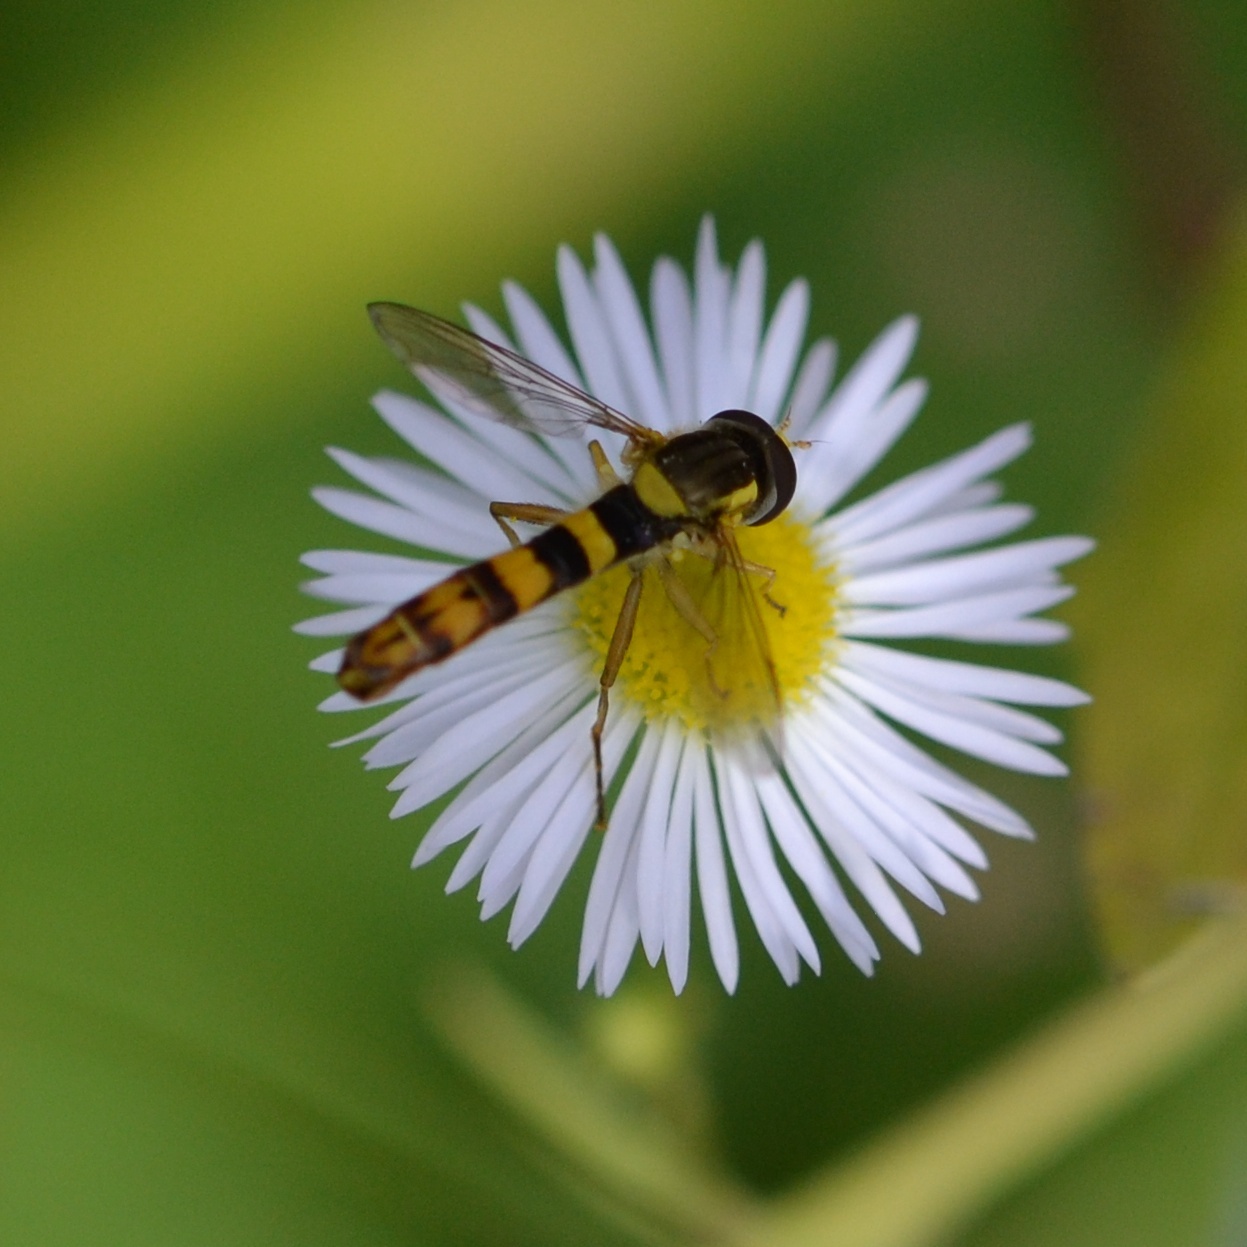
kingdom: Animalia
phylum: Arthropoda
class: Insecta
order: Diptera
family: Syrphidae
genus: Sphaerophoria
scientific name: Sphaerophoria scripta
